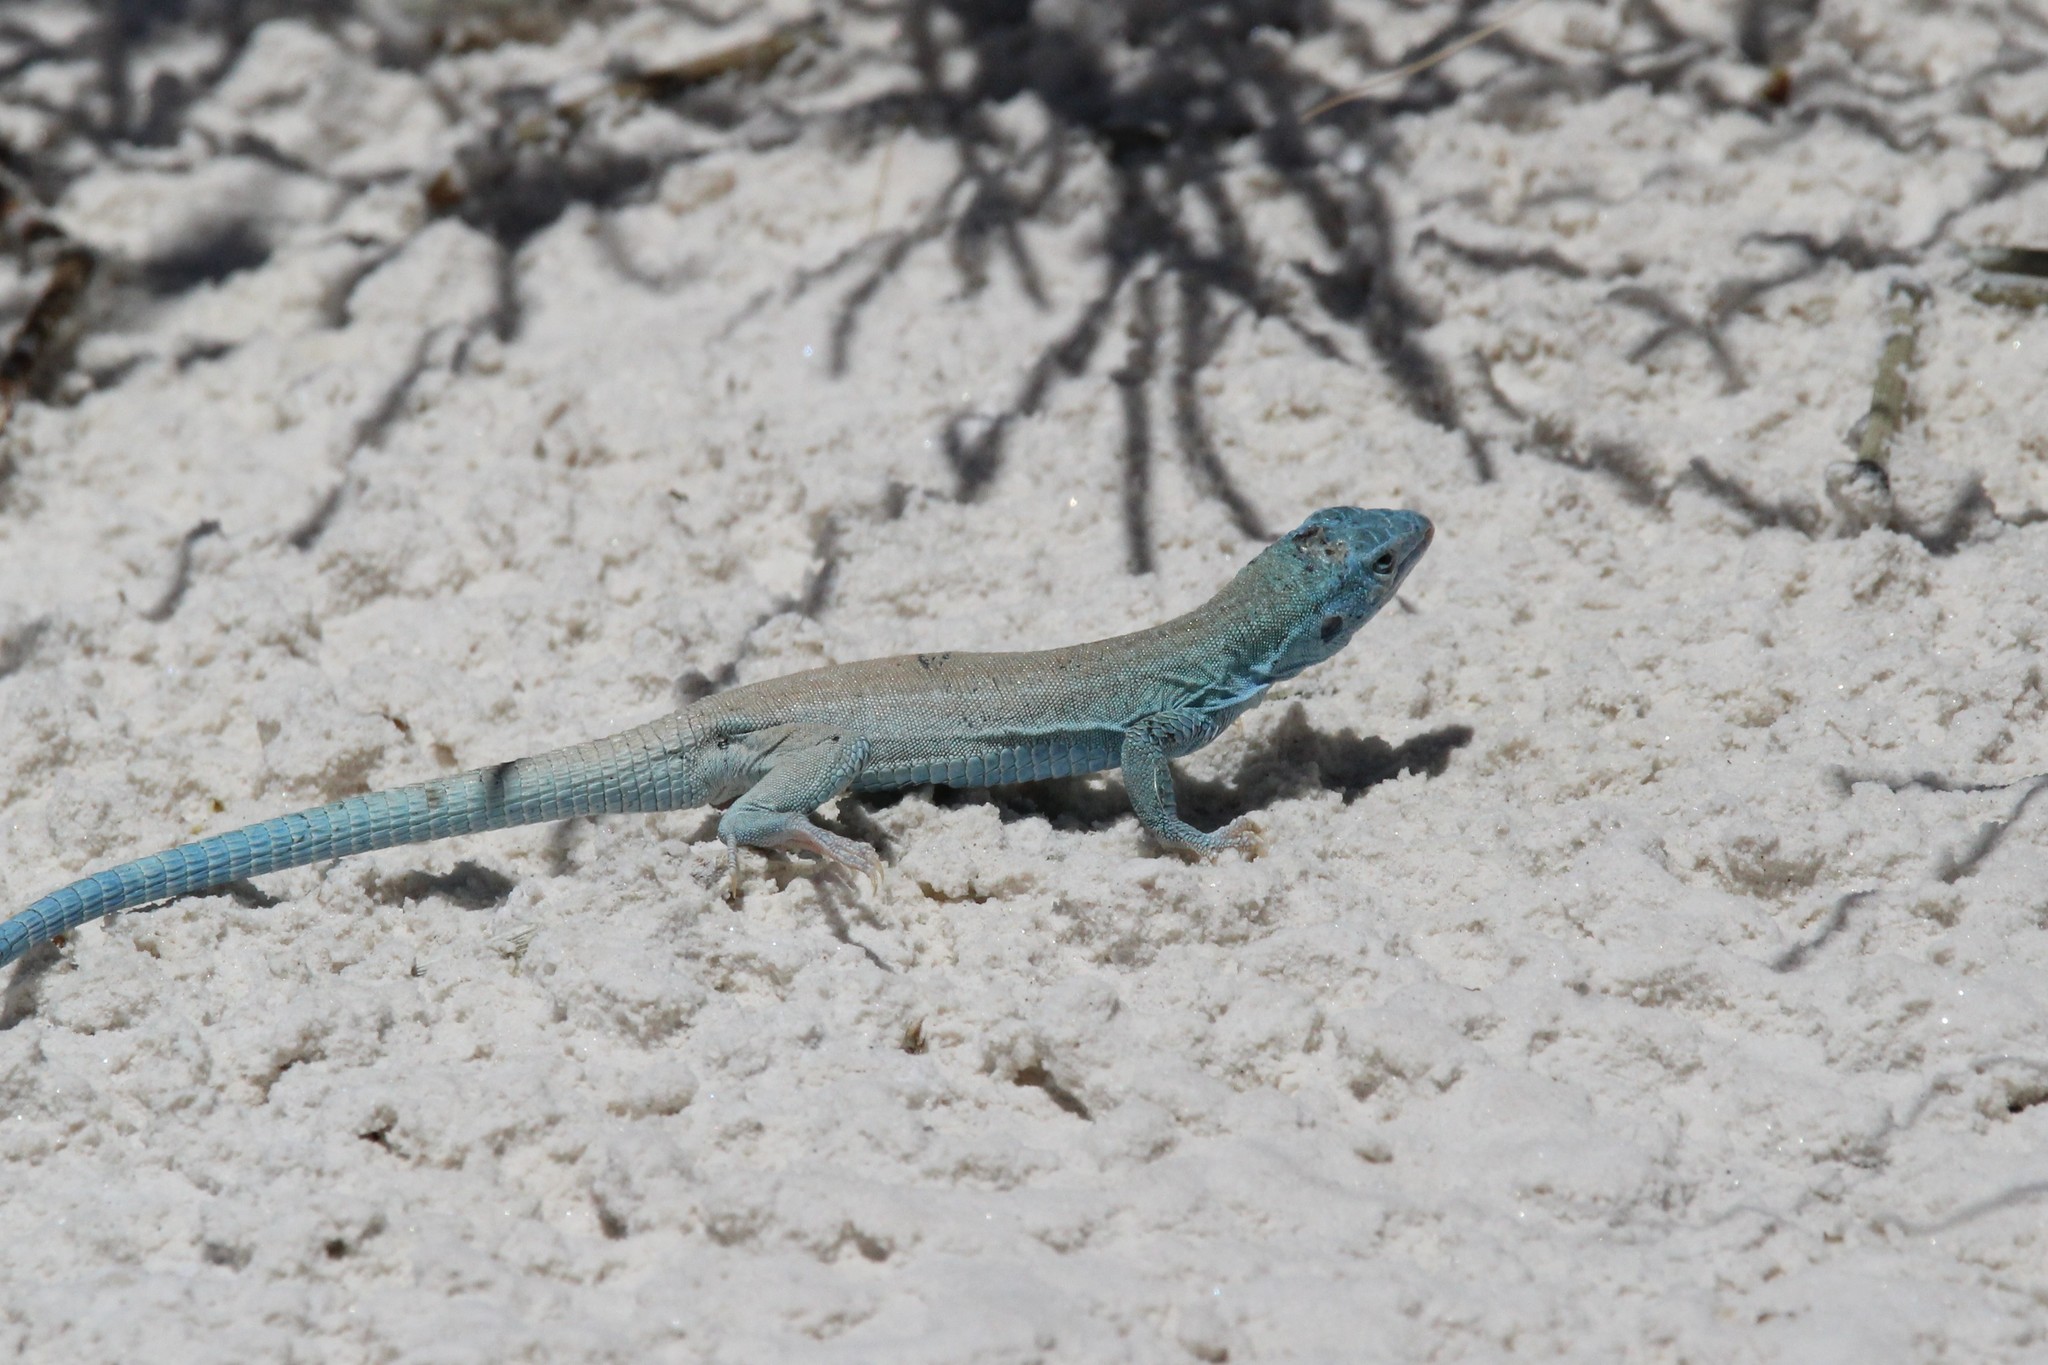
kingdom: Animalia
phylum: Chordata
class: Squamata
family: Teiidae
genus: Aspidoscelis
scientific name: Aspidoscelis inornatus
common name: Little striped whiptail
